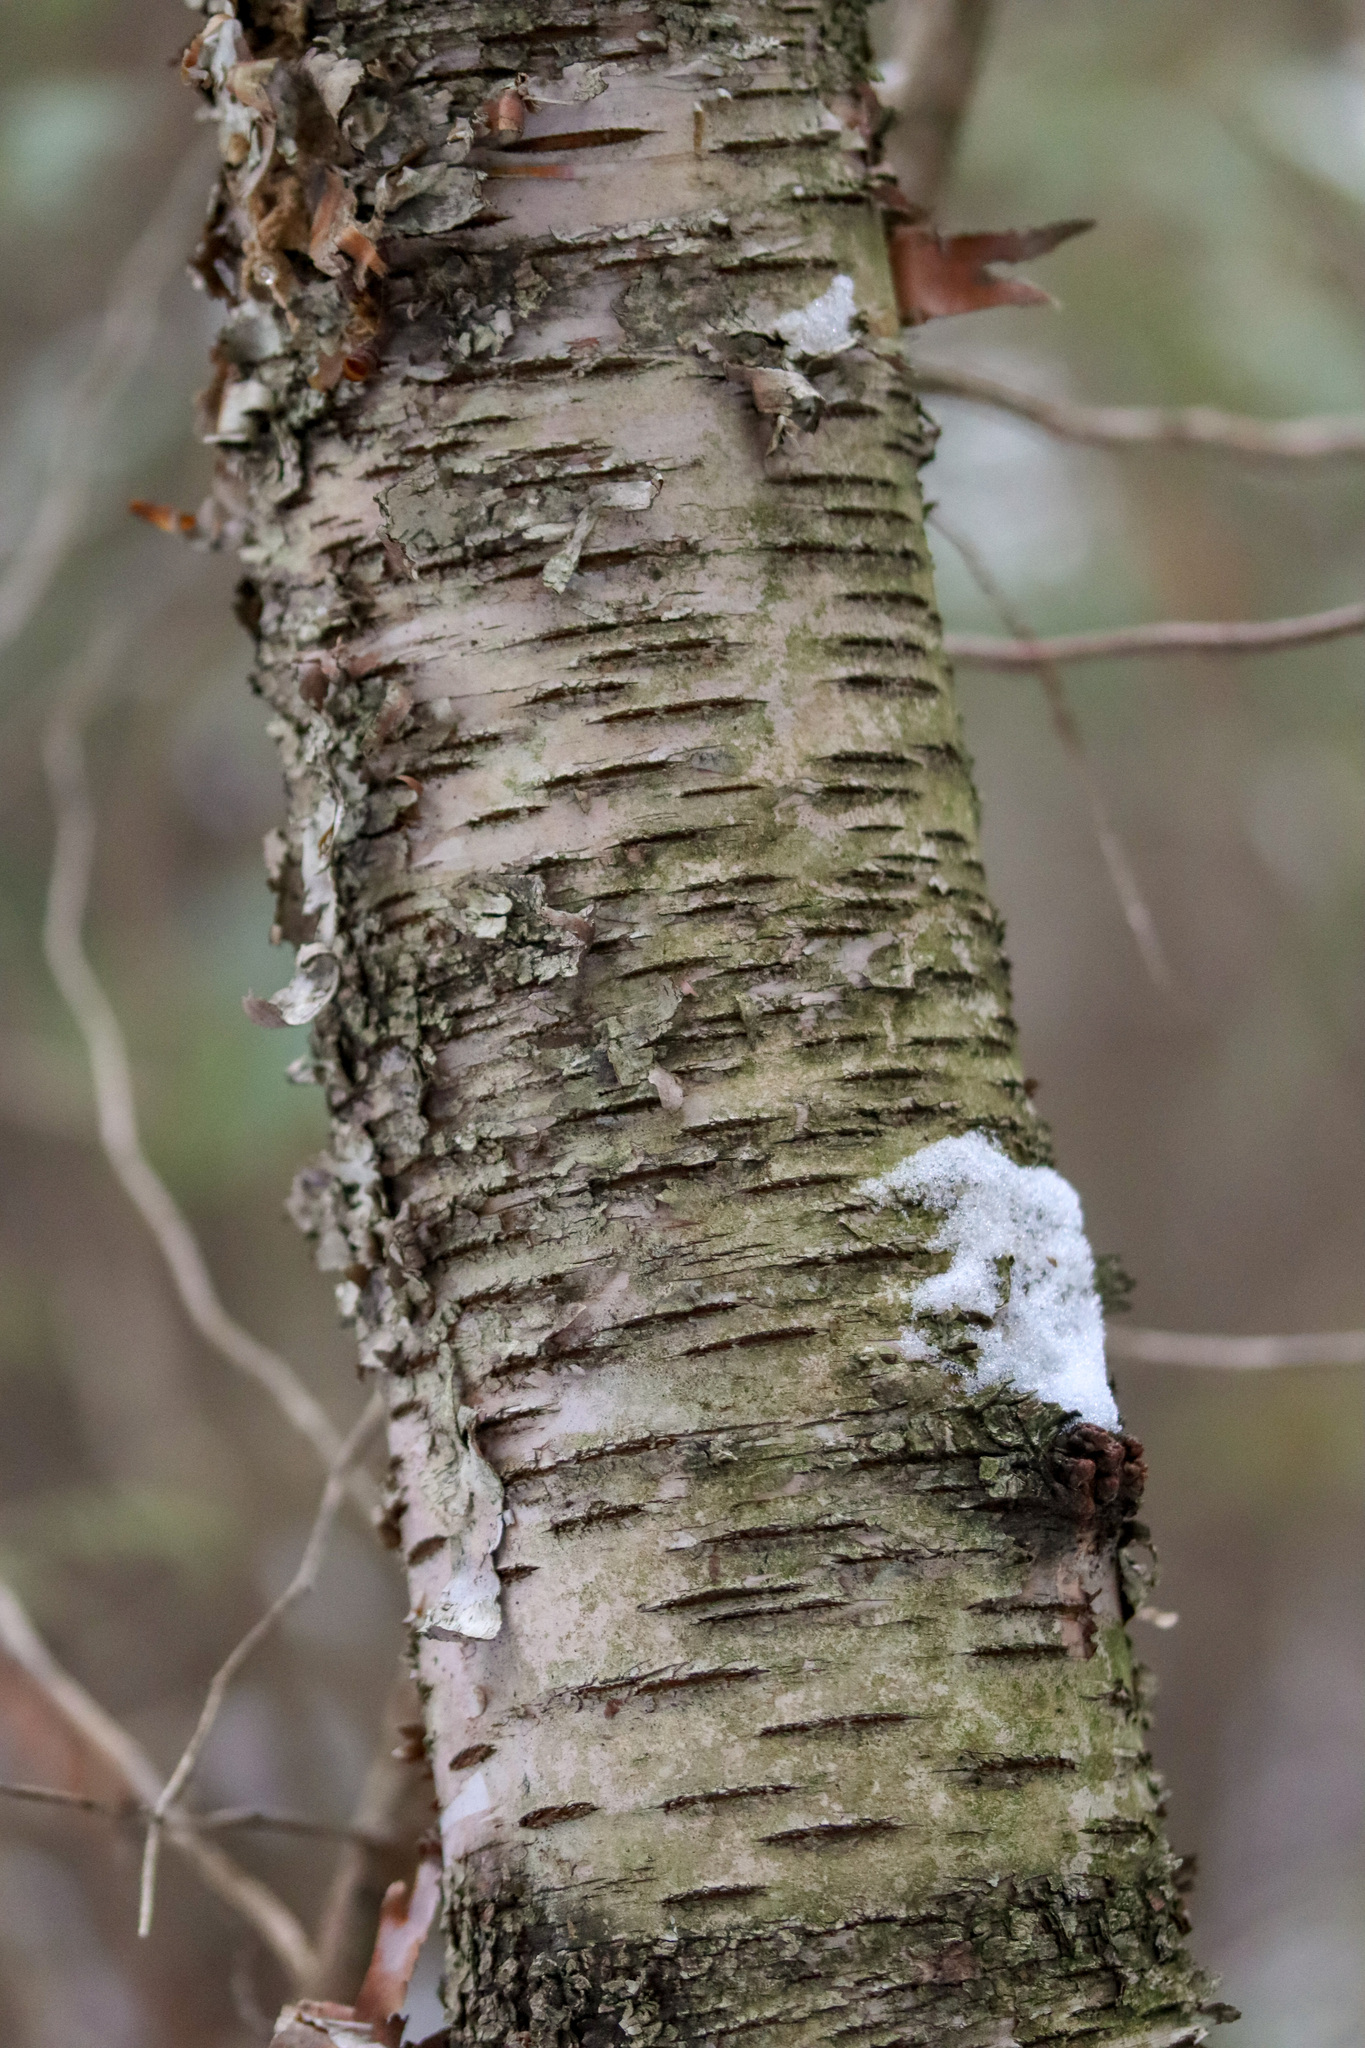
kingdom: Plantae
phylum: Tracheophyta
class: Magnoliopsida
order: Fagales
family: Betulaceae
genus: Betula
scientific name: Betula papyrifera
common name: Paper birch
